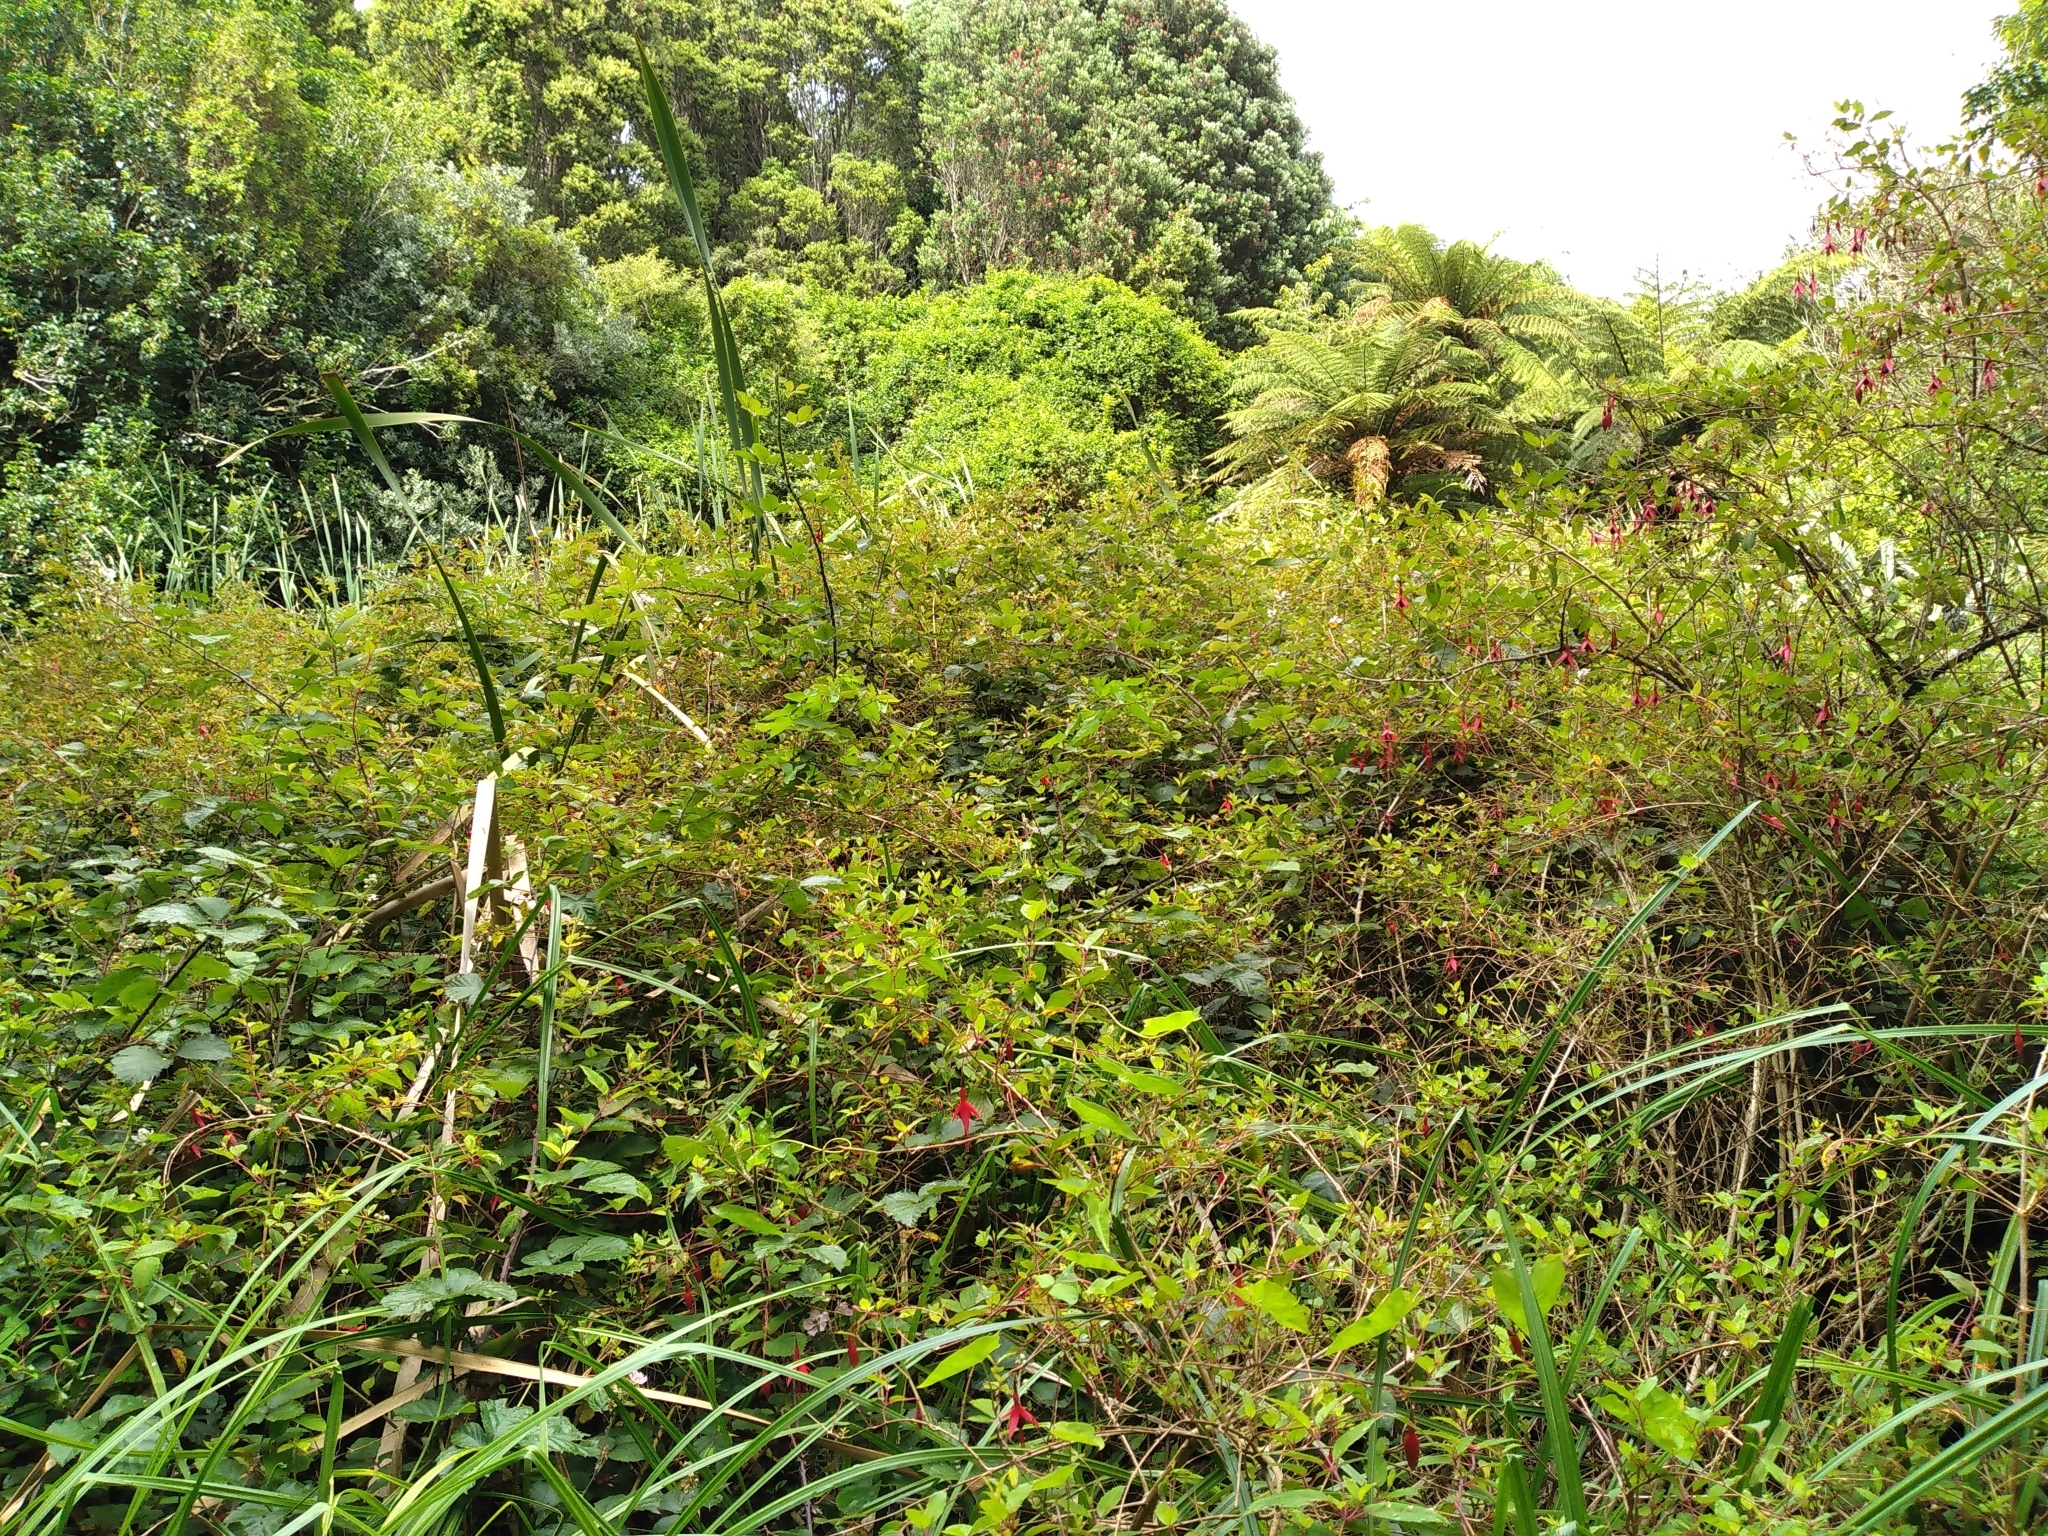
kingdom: Plantae
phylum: Tracheophyta
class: Magnoliopsida
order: Myrtales
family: Onagraceae
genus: Fuchsia
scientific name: Fuchsia magellanica
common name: Hardy fuchsia
